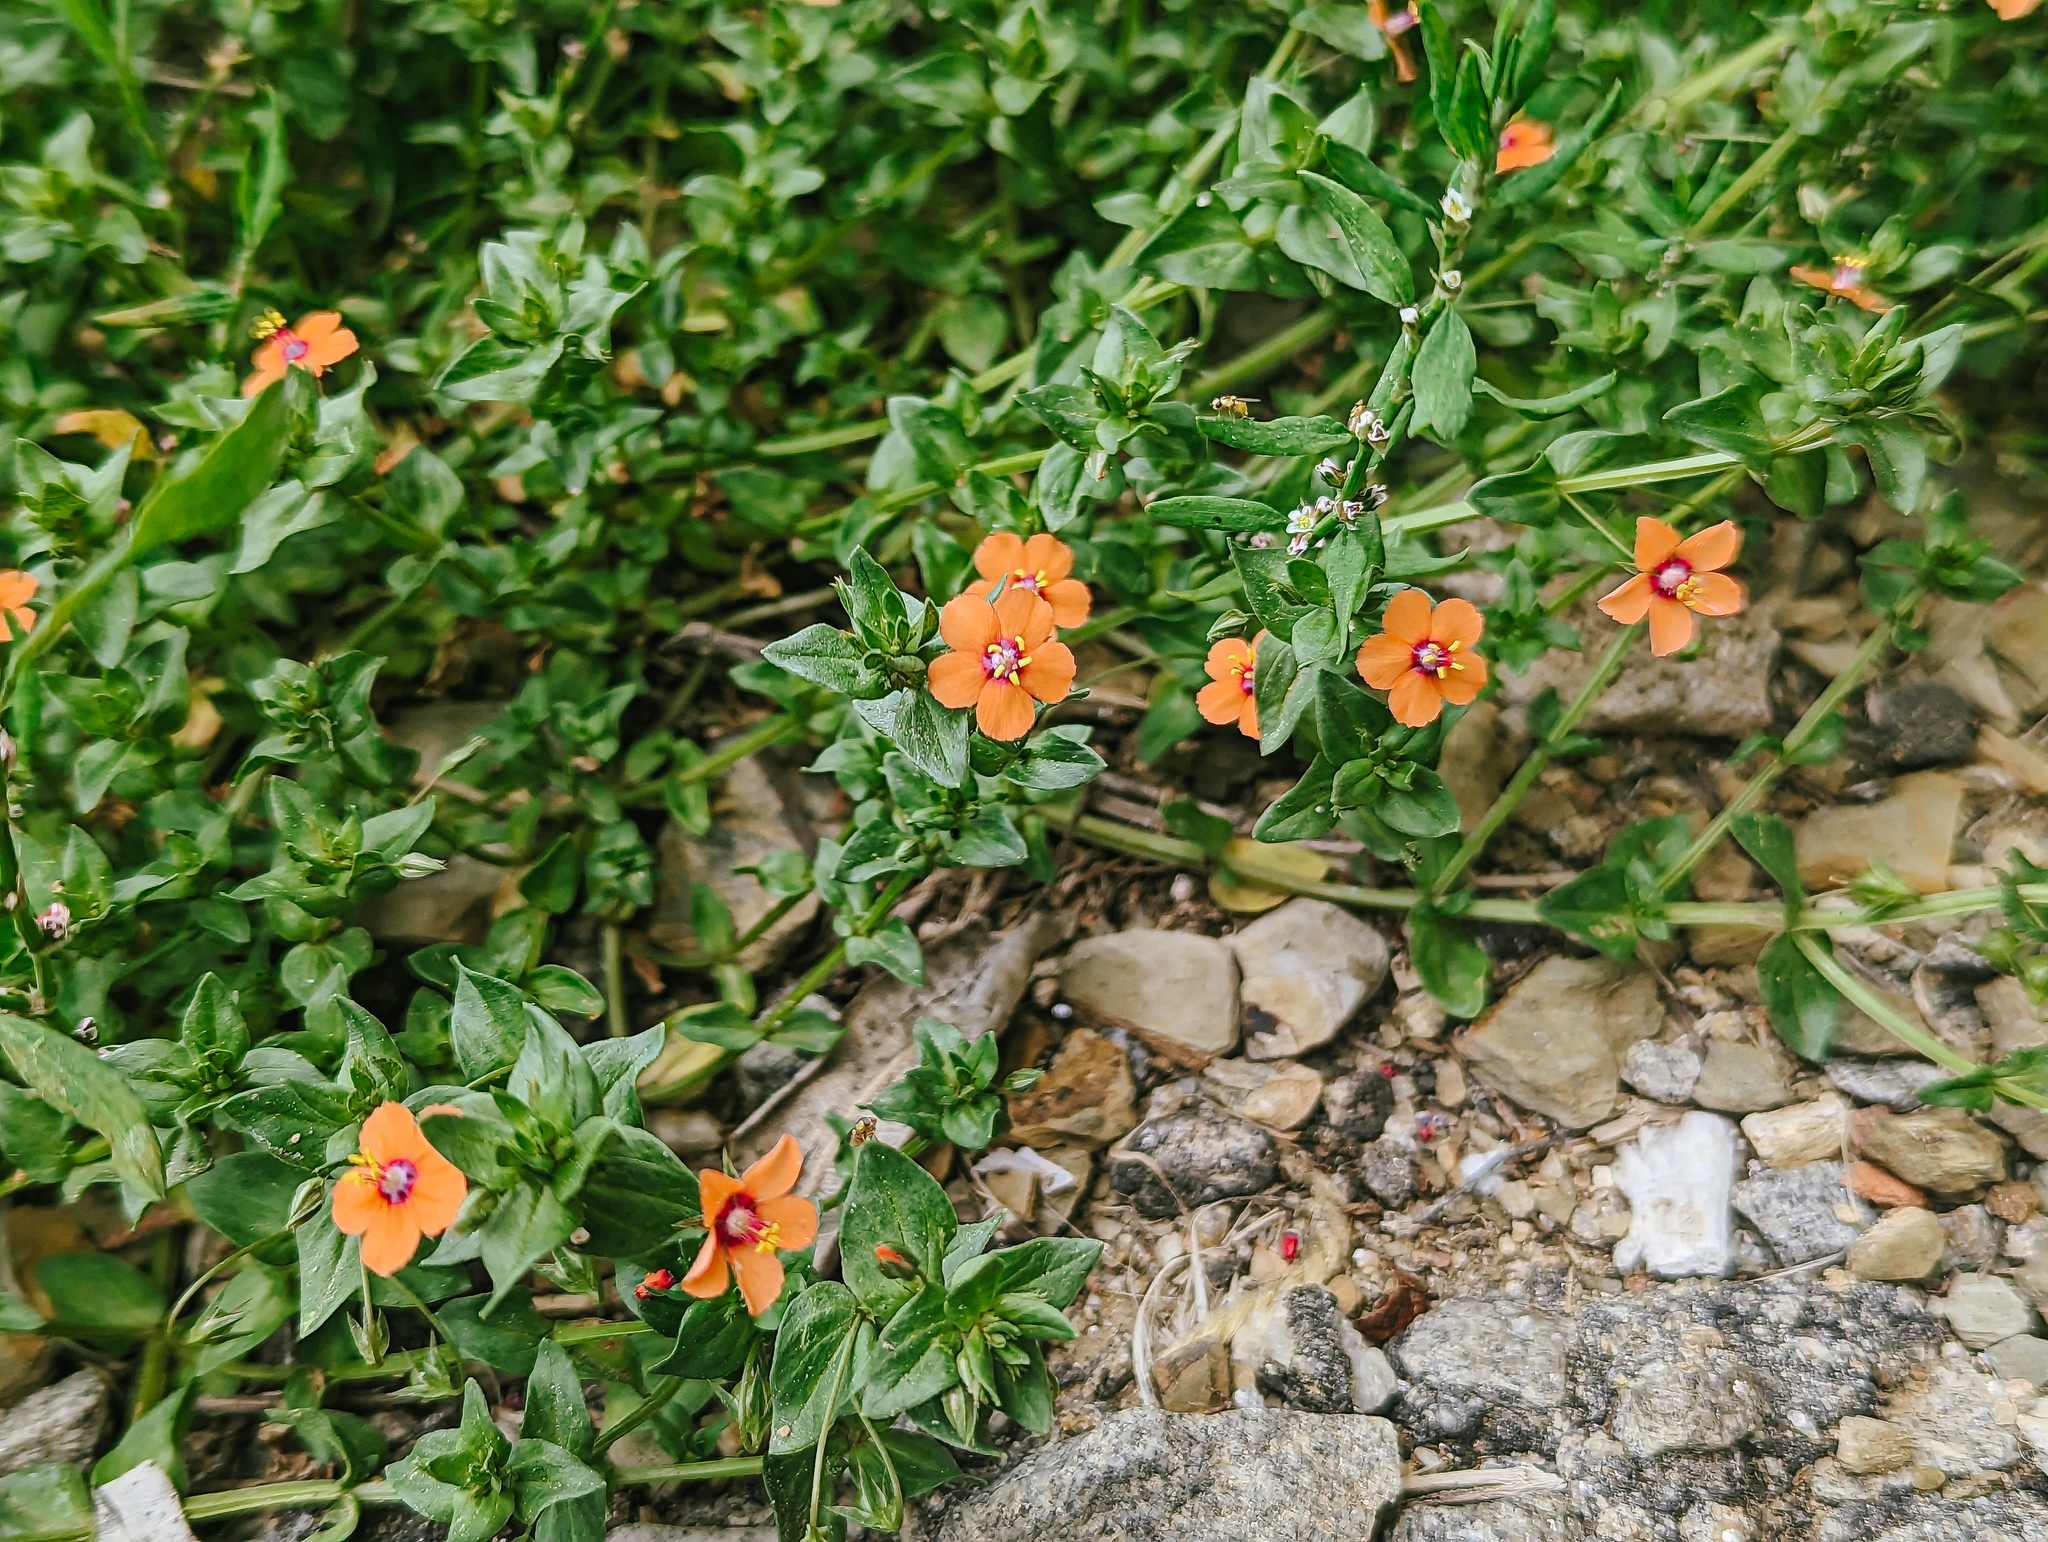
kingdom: Plantae
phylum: Tracheophyta
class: Magnoliopsida
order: Ericales
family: Primulaceae
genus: Lysimachia
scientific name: Lysimachia arvensis
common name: Scarlet pimpernel
